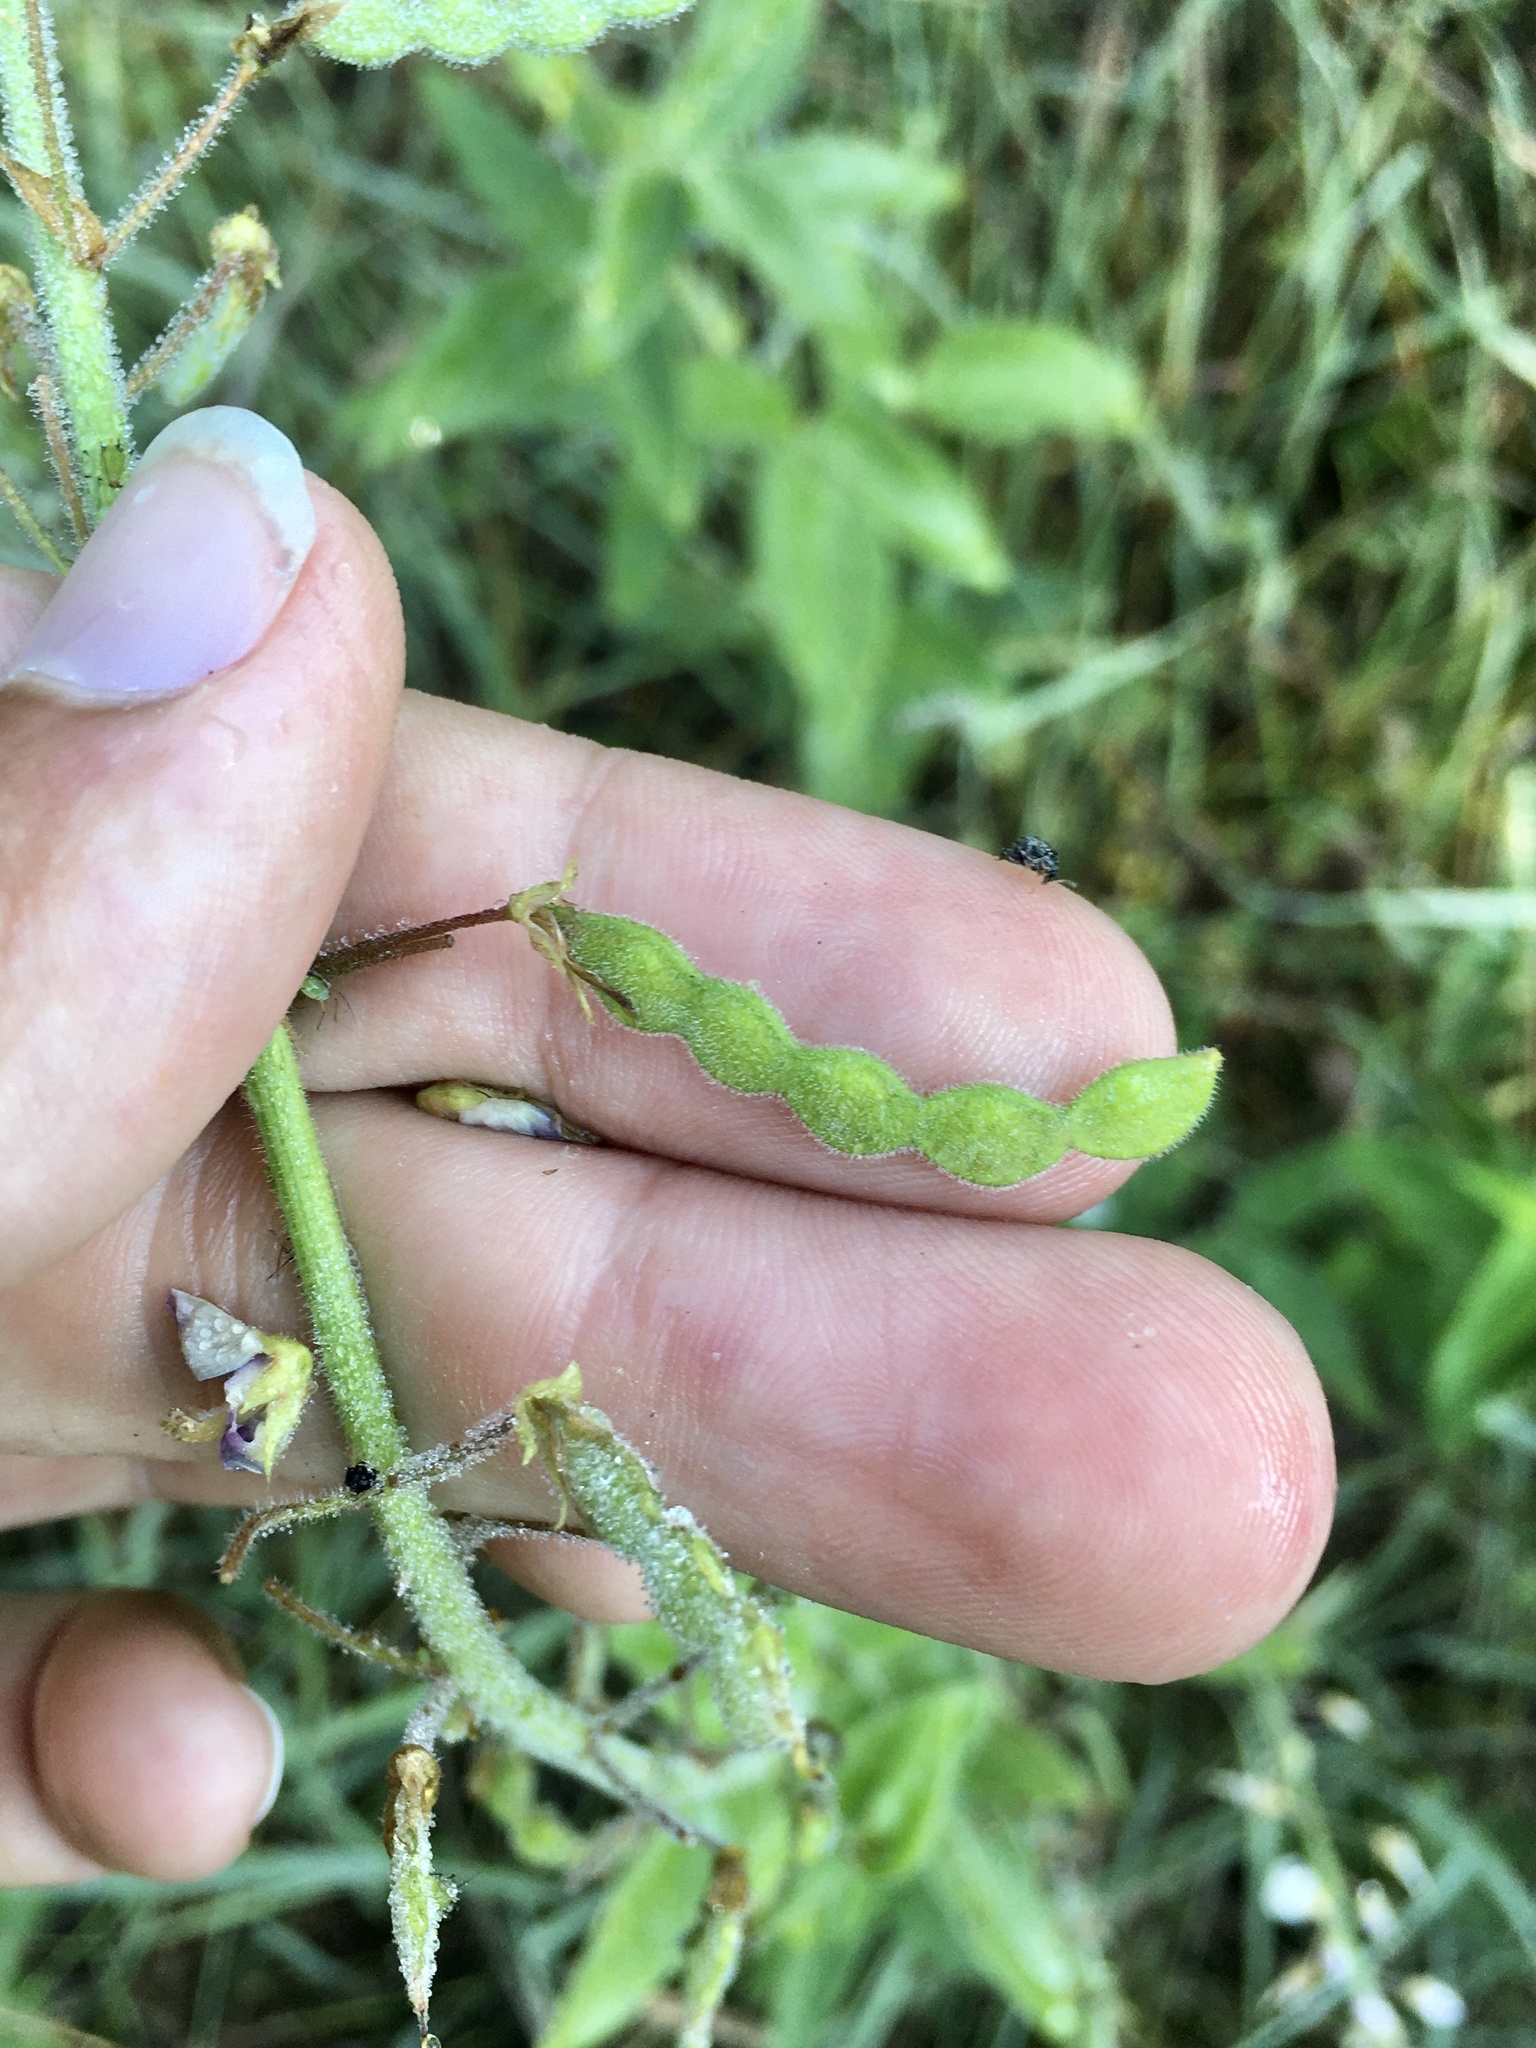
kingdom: Plantae
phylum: Tracheophyta
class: Magnoliopsida
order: Fabales
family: Fabaceae
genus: Desmodium
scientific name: Desmodium illinoense
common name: Illinois tick-clover
